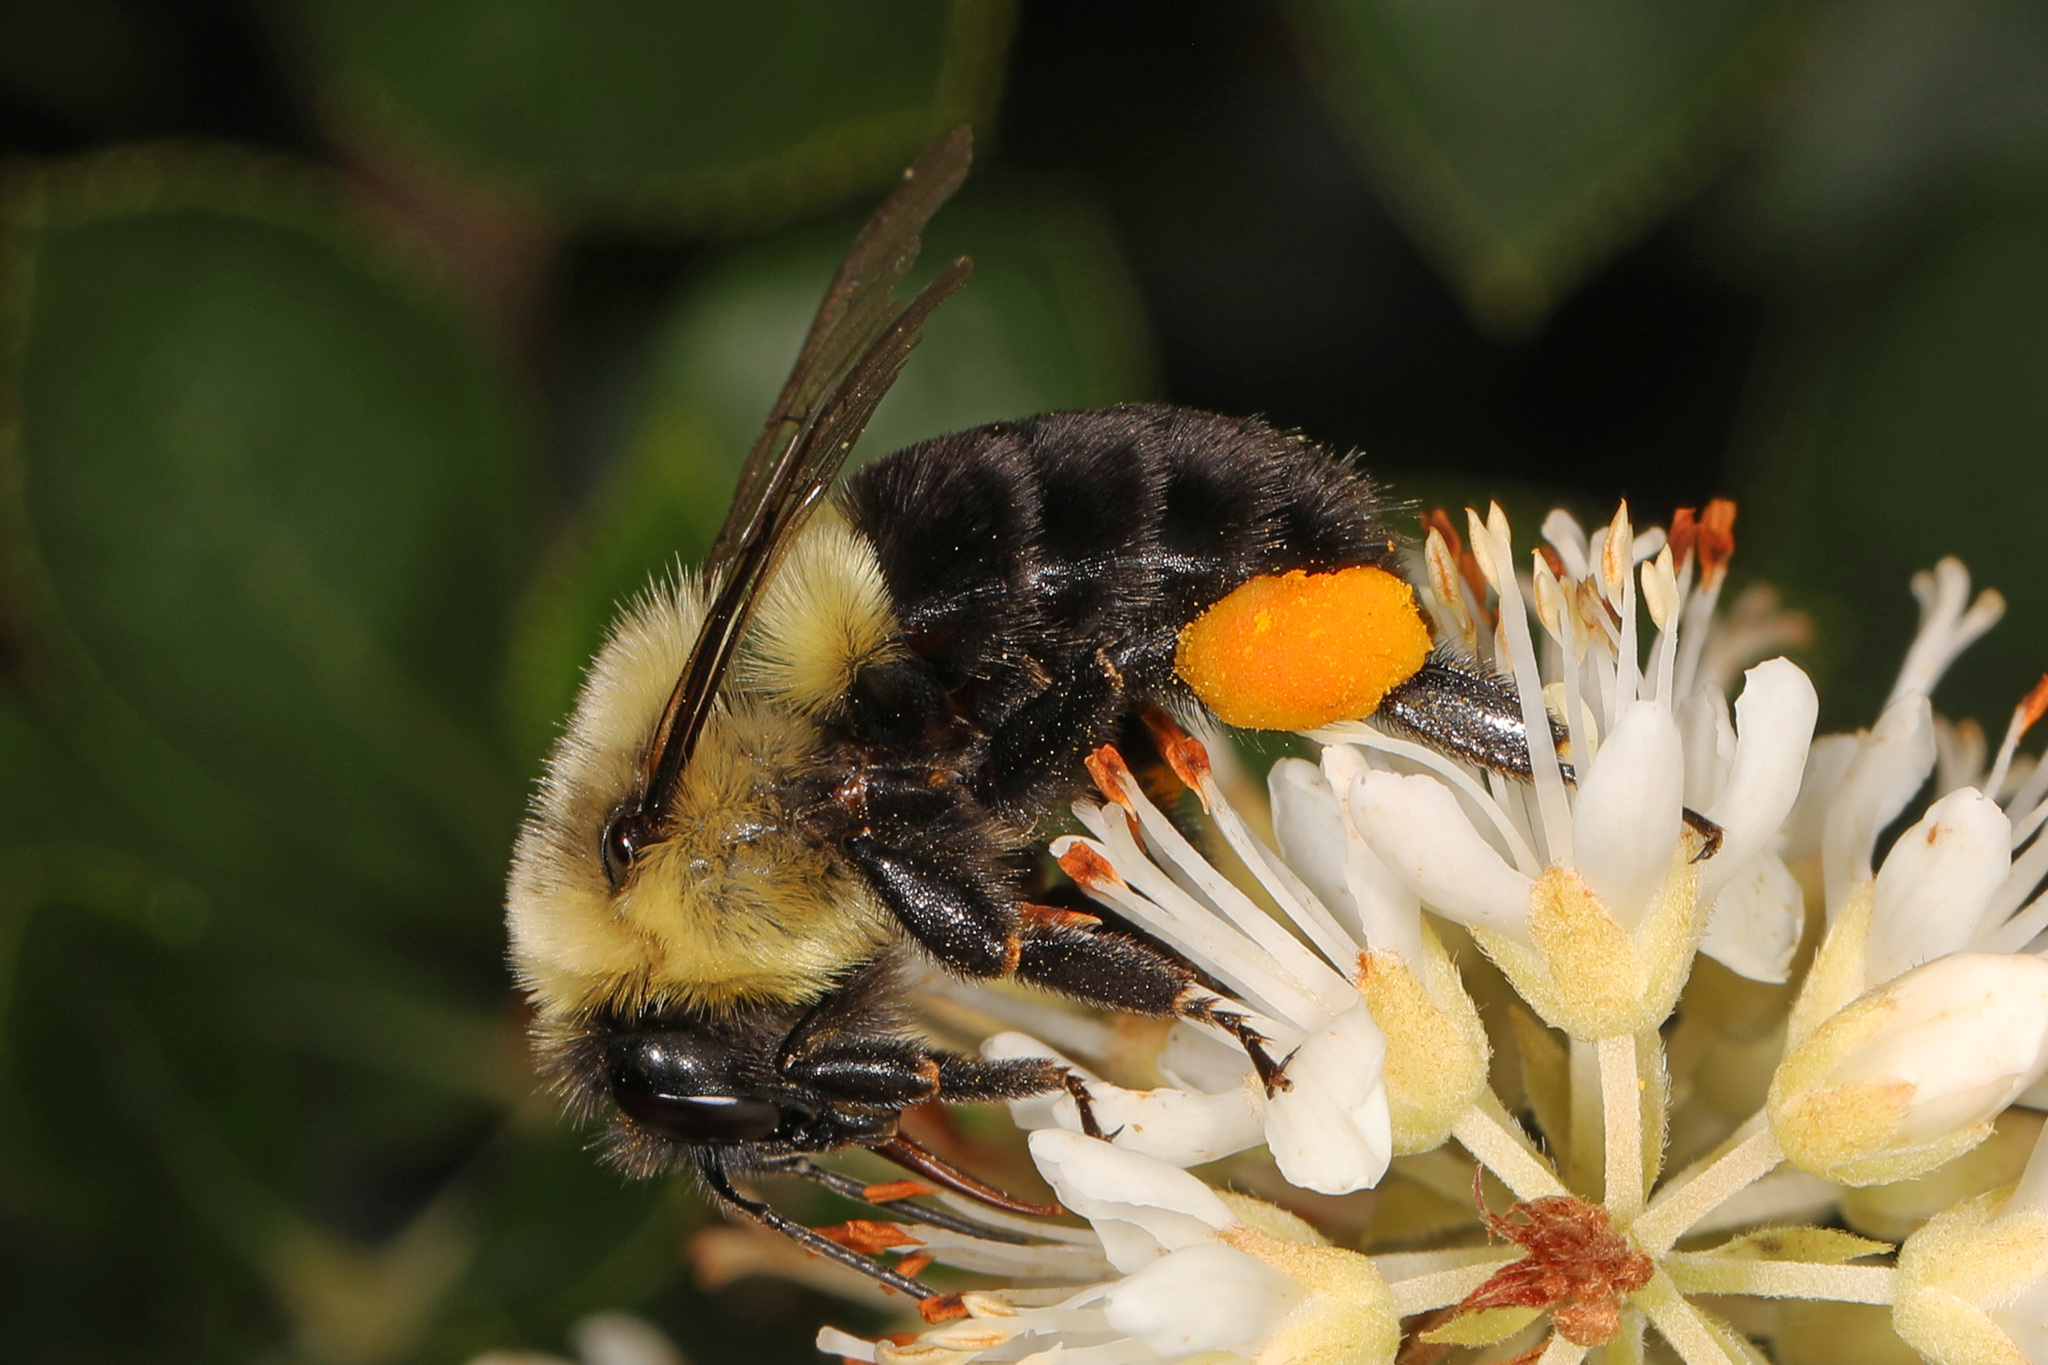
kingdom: Animalia
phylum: Arthropoda
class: Insecta
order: Hymenoptera
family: Apidae
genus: Bombus
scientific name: Bombus impatiens
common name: Common eastern bumble bee
